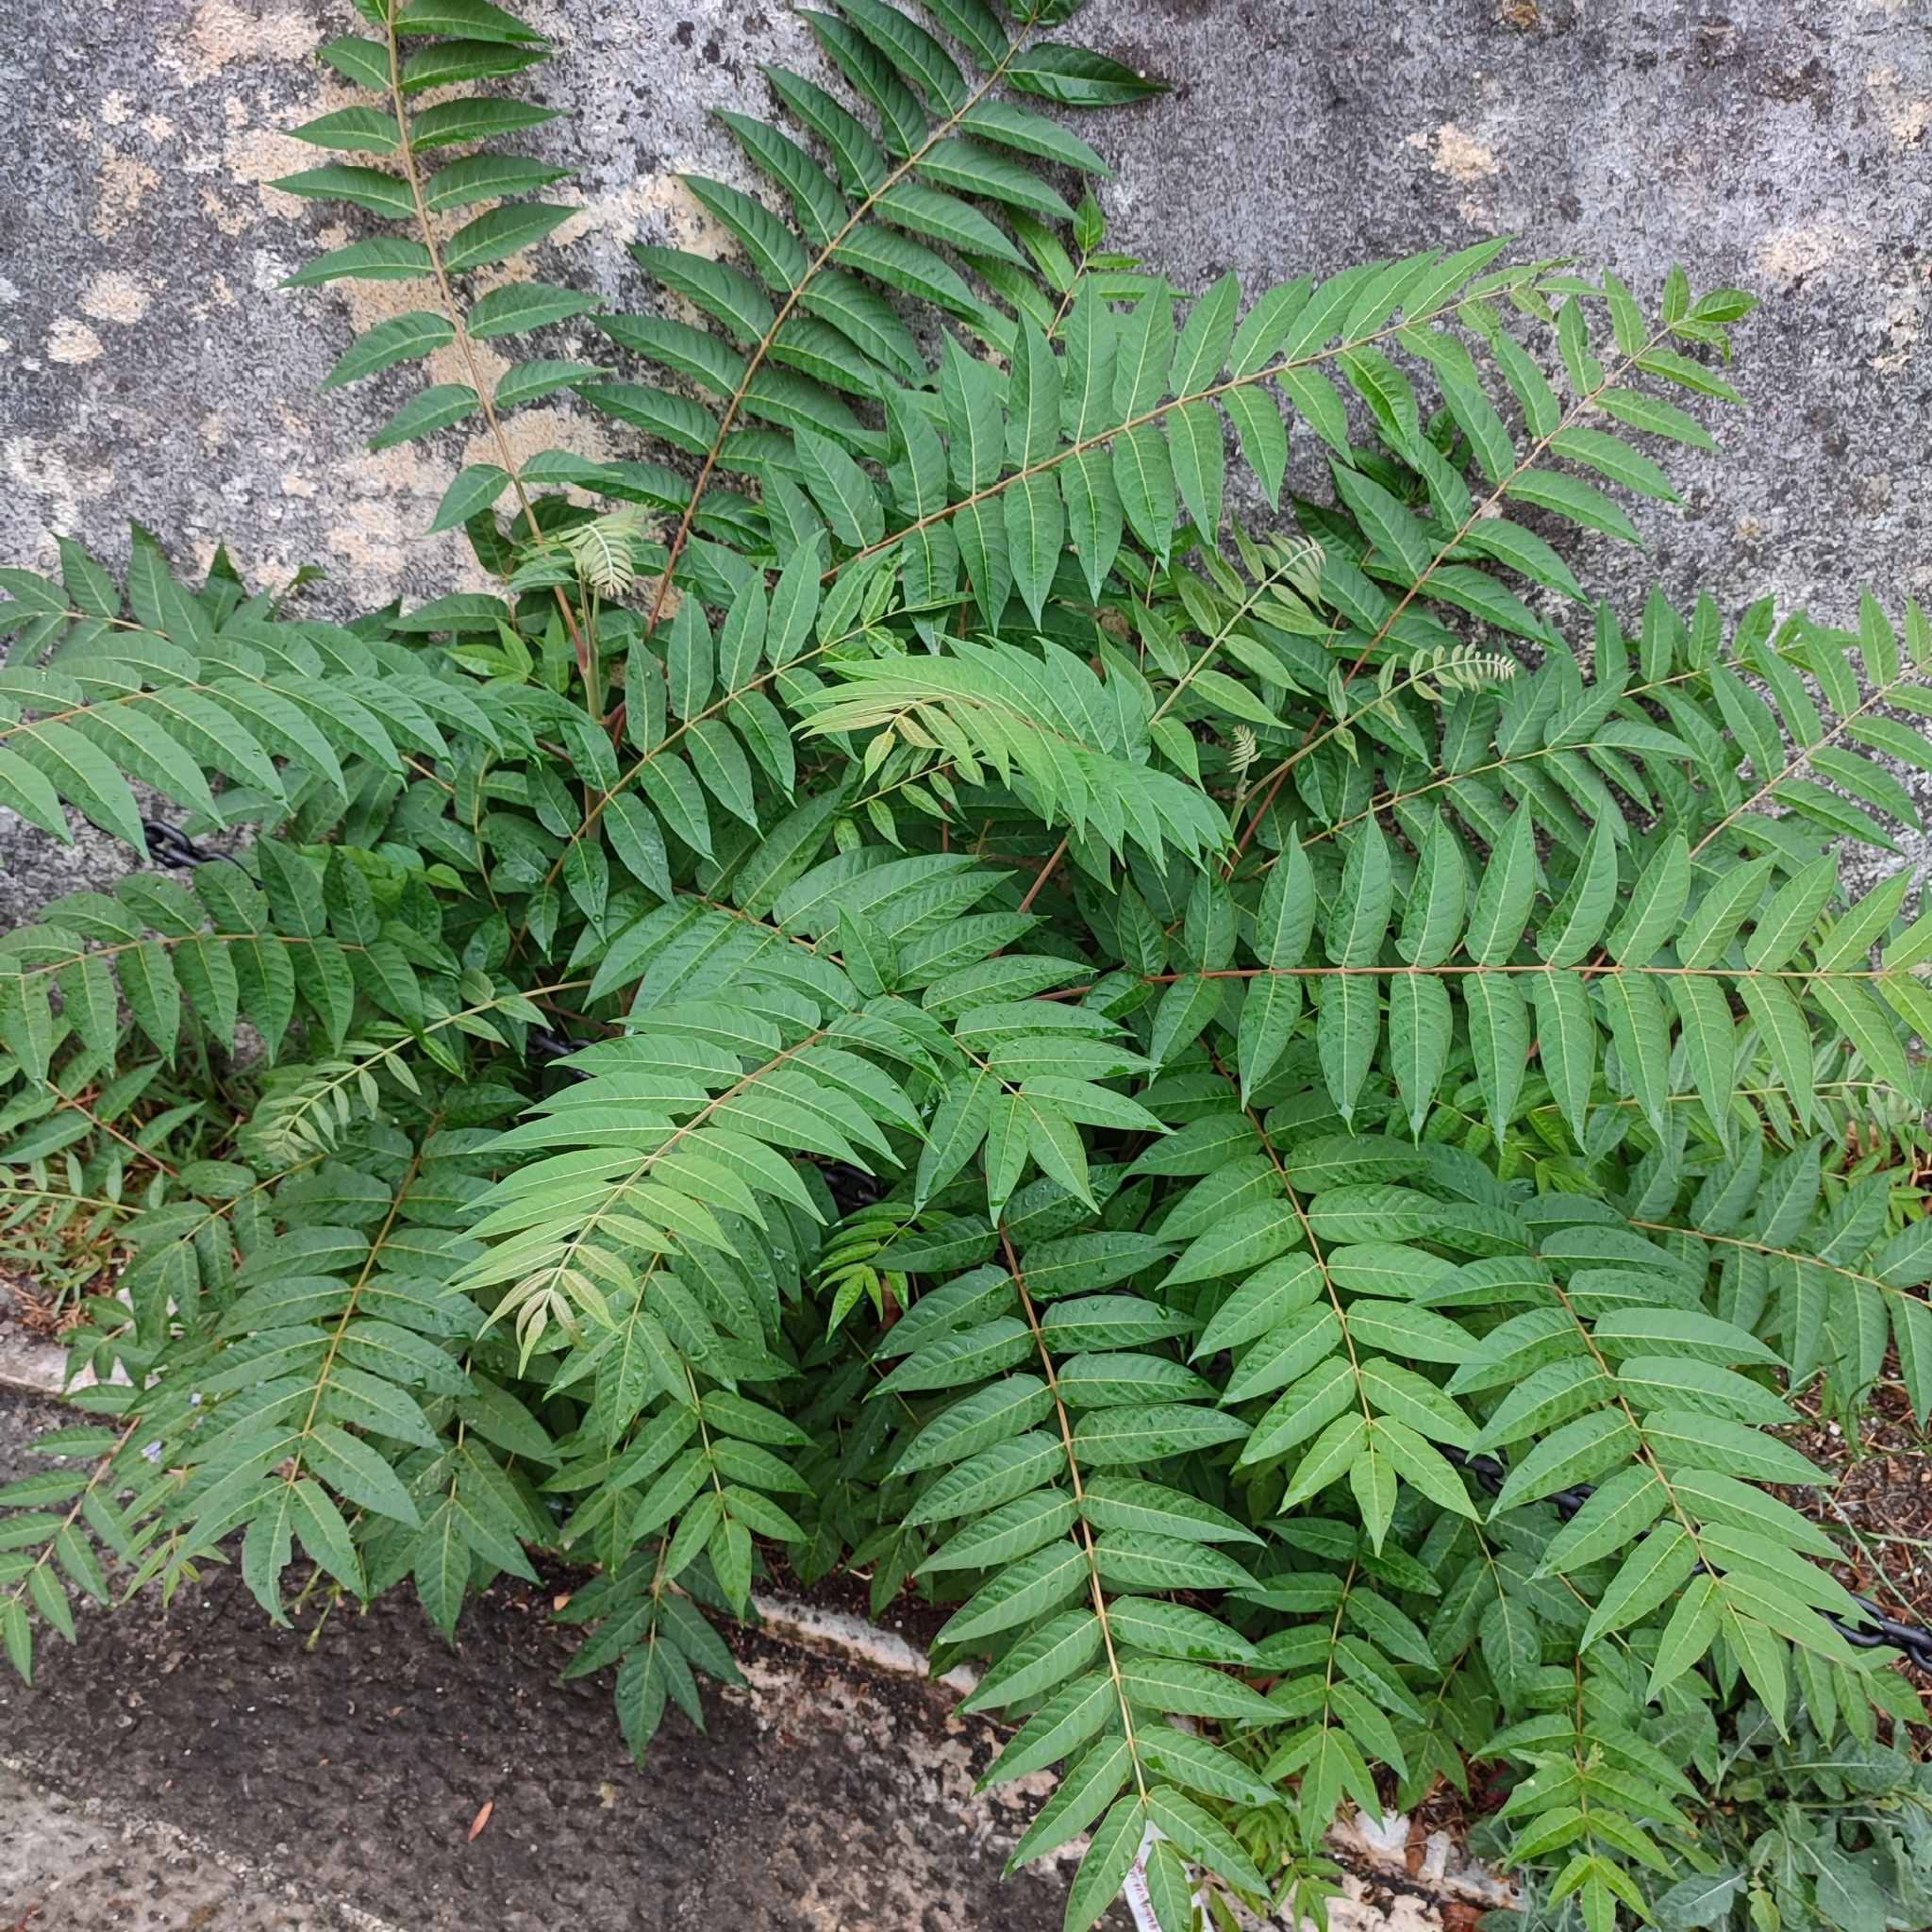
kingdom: Plantae
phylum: Tracheophyta
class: Magnoliopsida
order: Sapindales
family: Simaroubaceae
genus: Ailanthus
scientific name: Ailanthus altissima
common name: Tree-of-heaven
